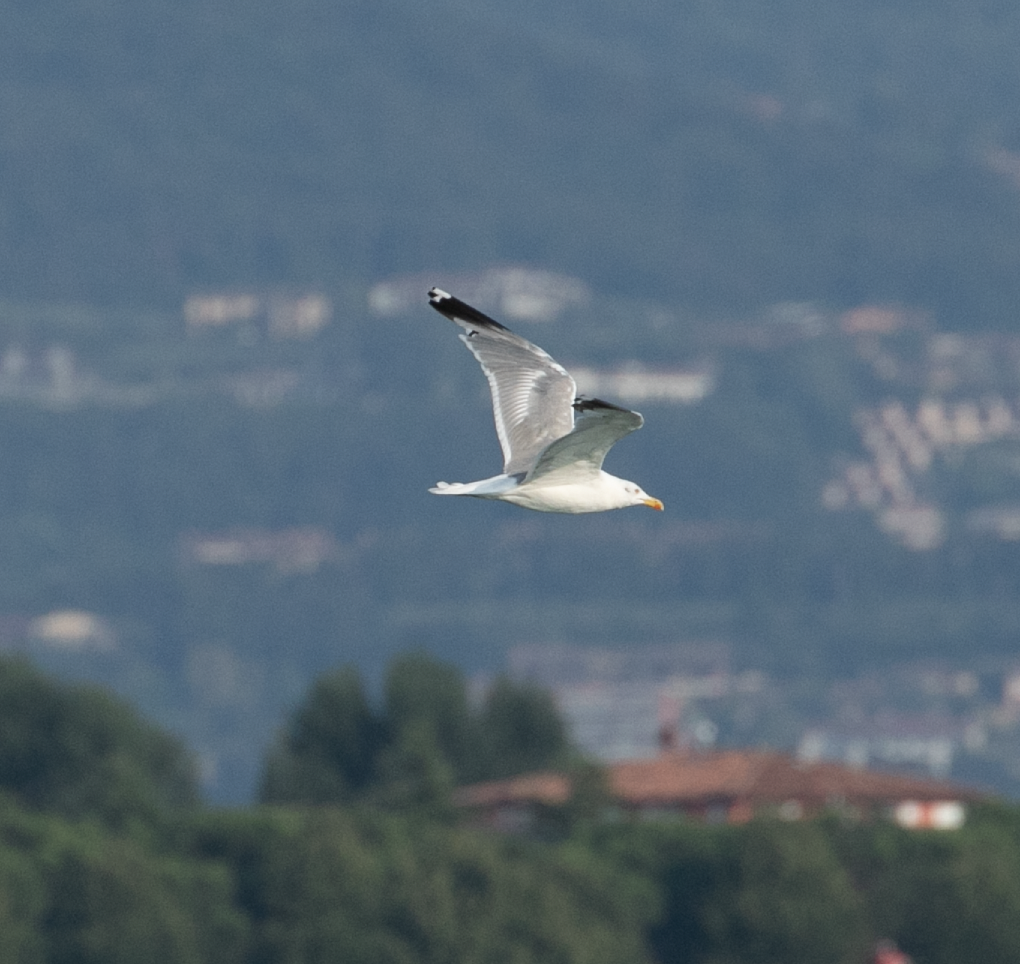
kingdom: Animalia
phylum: Chordata
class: Aves
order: Charadriiformes
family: Laridae
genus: Larus
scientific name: Larus michahellis
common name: Yellow-legged gull
